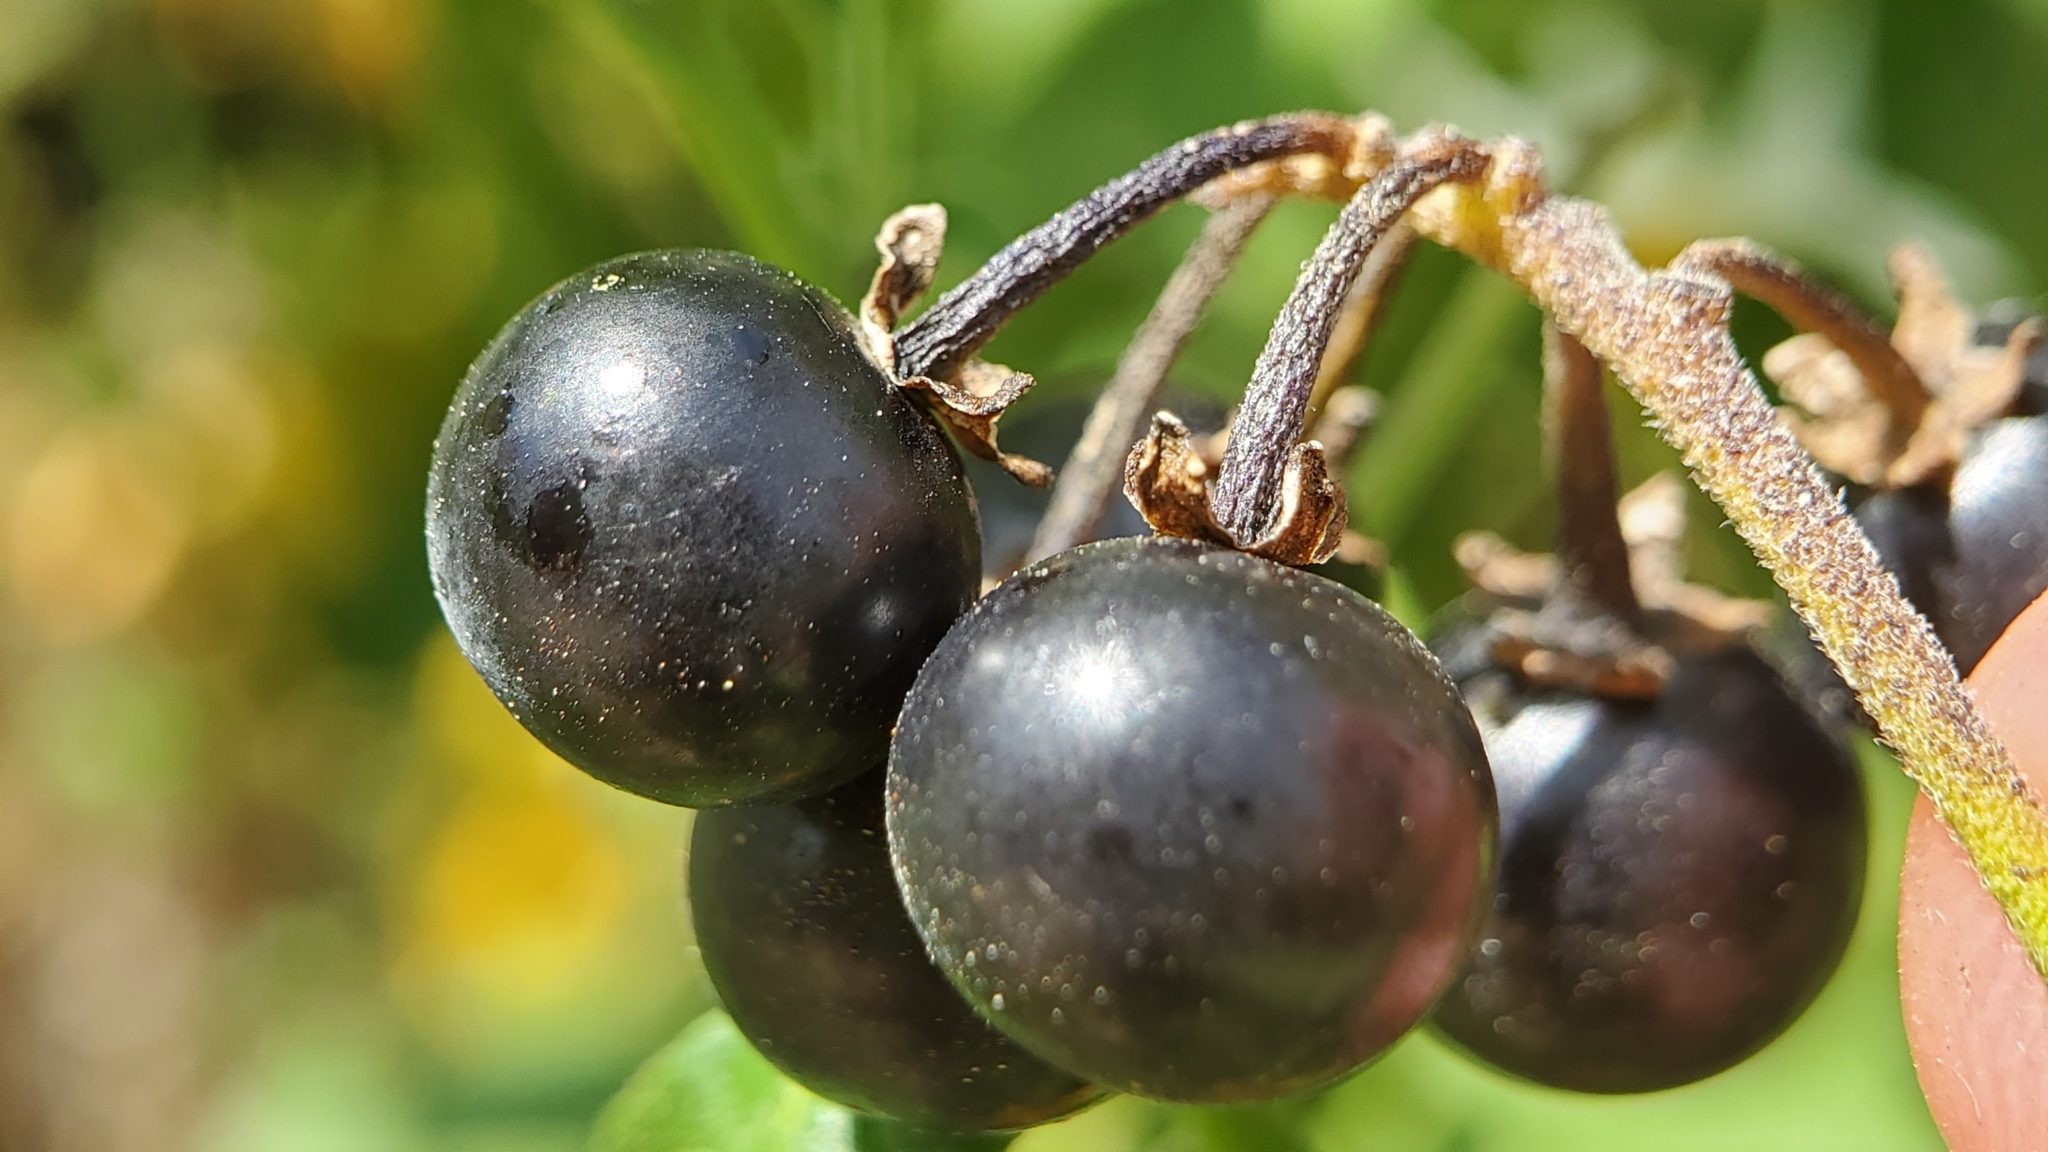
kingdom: Plantae
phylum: Tracheophyta
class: Magnoliopsida
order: Solanales
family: Solanaceae
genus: Solanum
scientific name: Solanum douglasii
